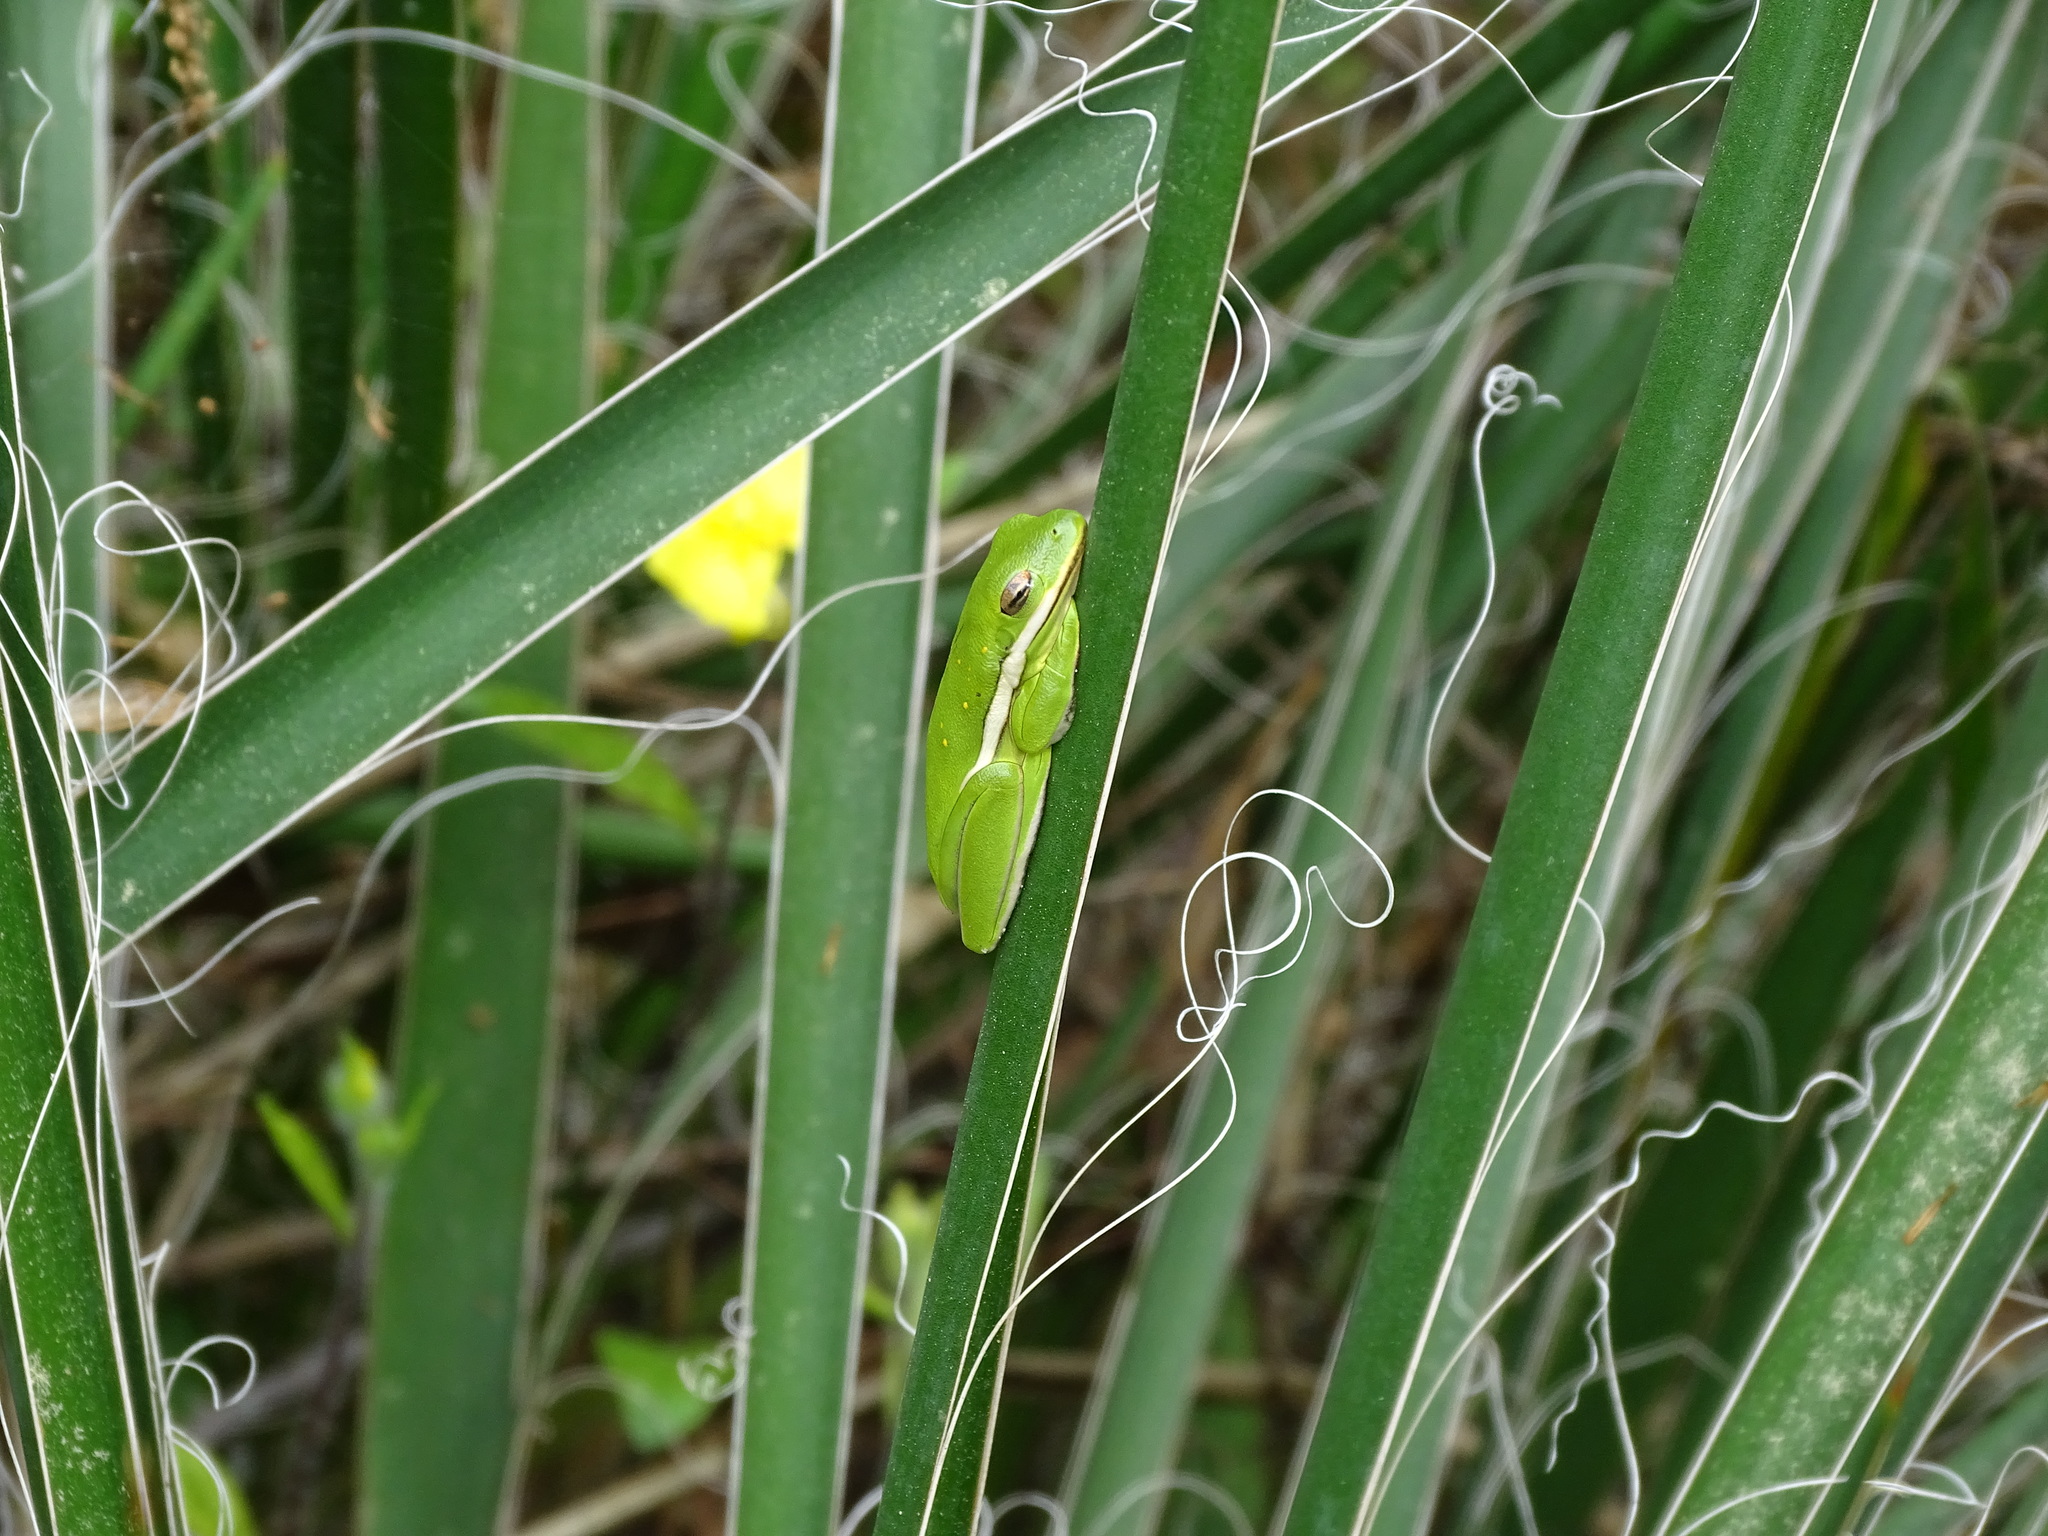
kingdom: Animalia
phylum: Chordata
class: Amphibia
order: Anura
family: Hylidae
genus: Dryophytes
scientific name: Dryophytes cinereus
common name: Green treefrog
